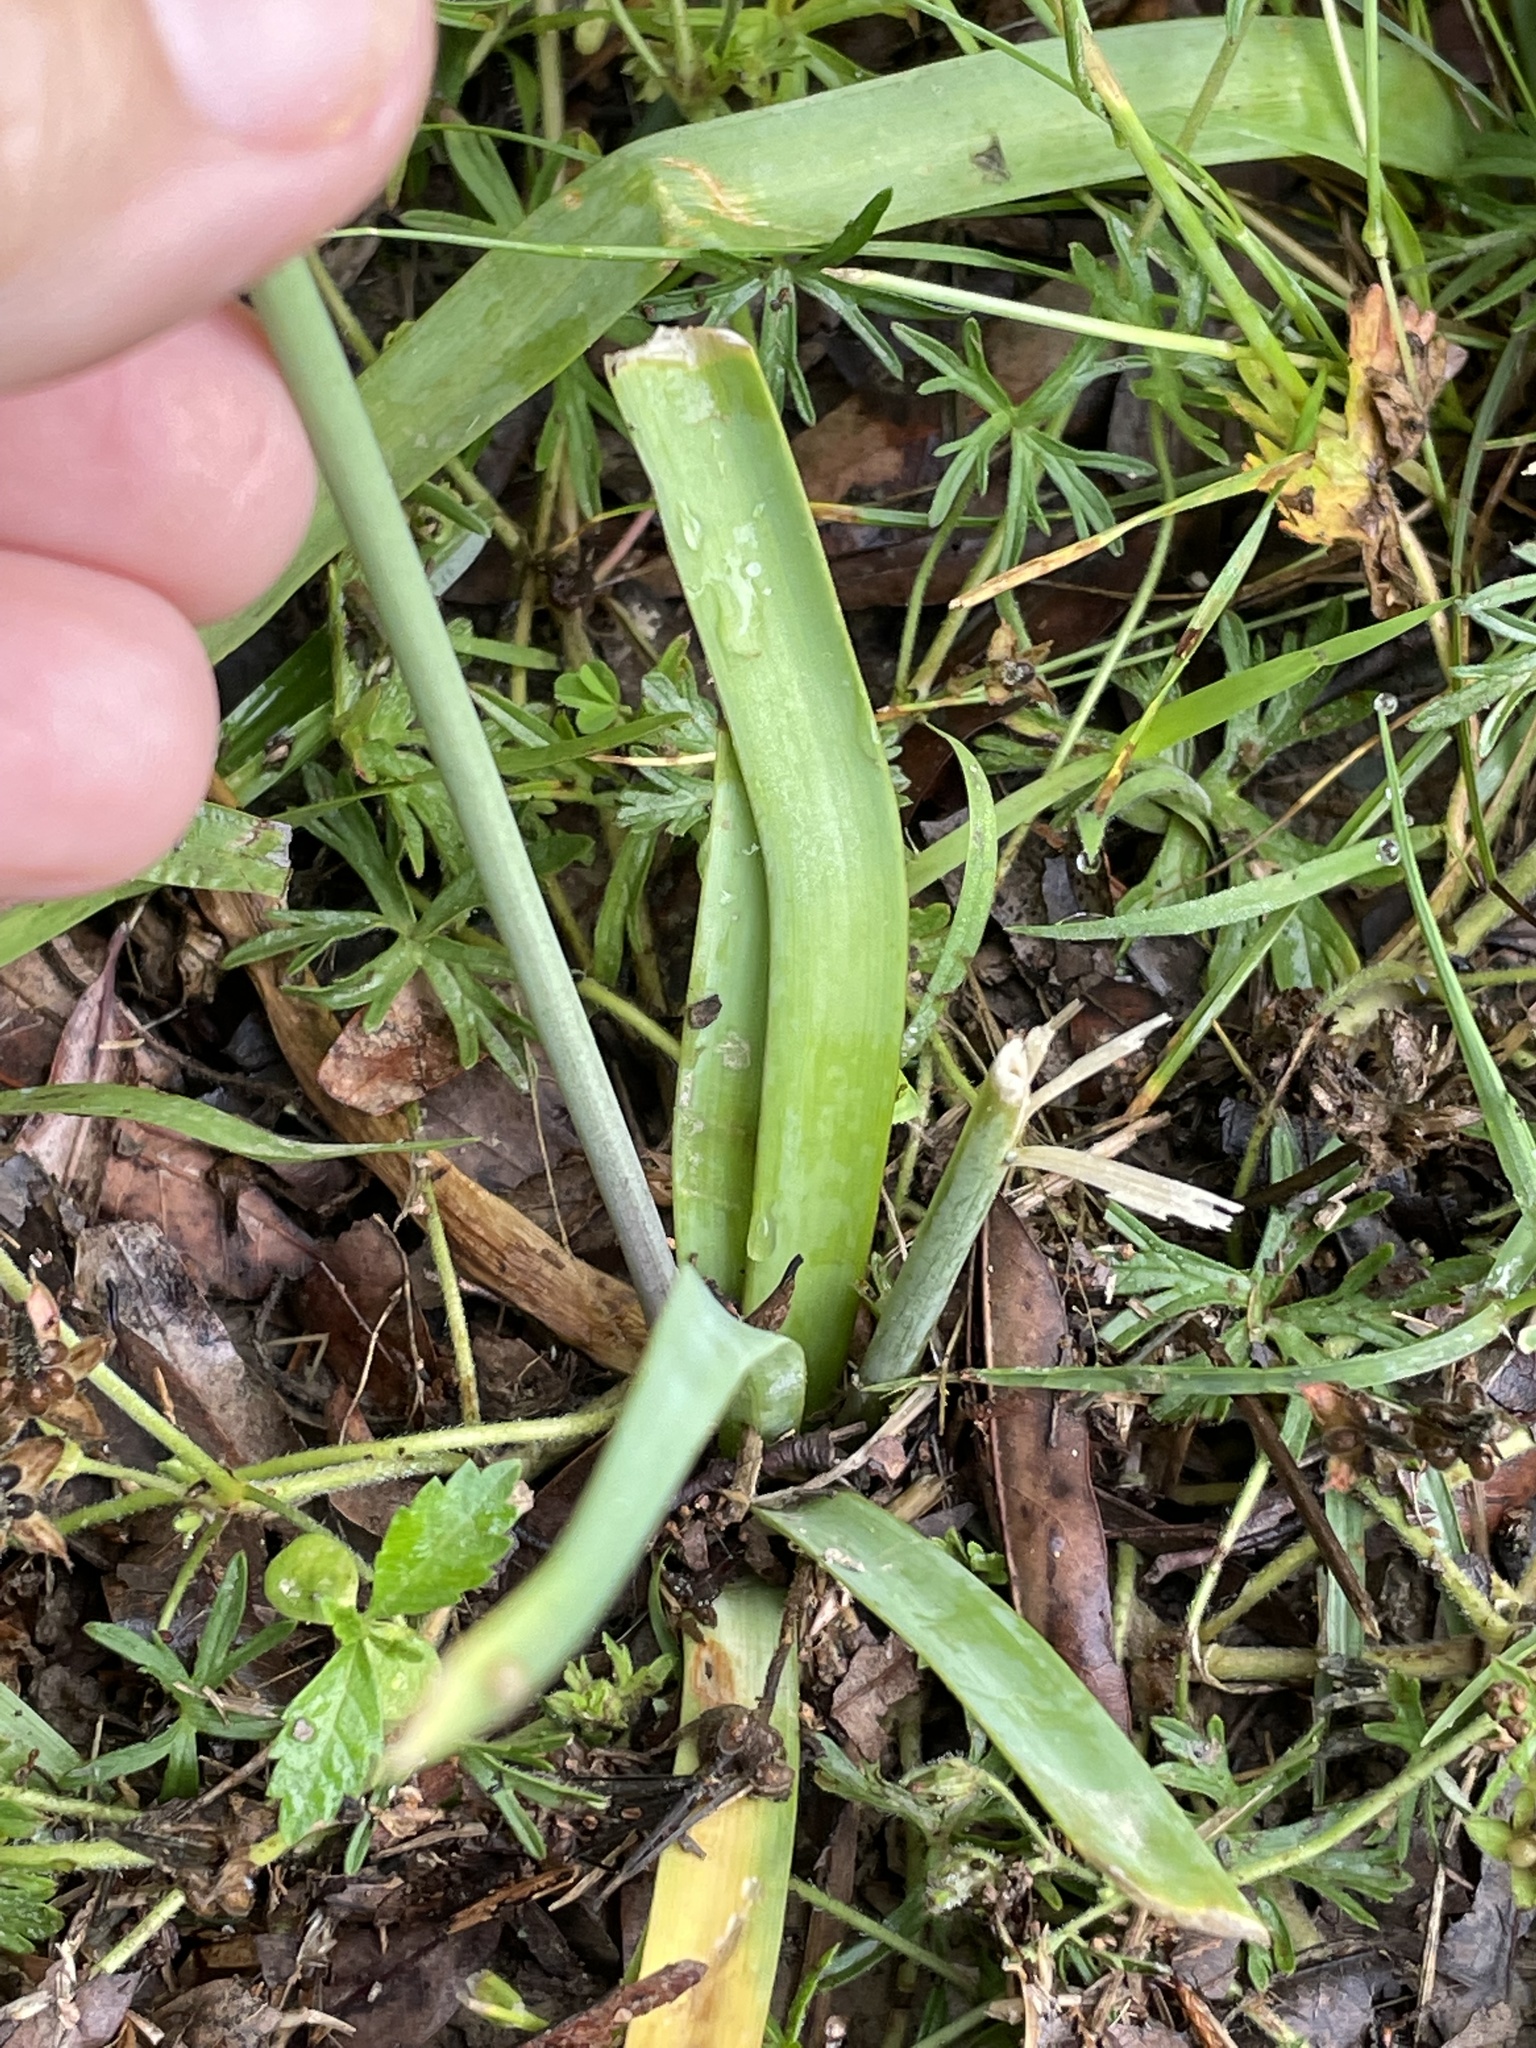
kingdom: Plantae
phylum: Tracheophyta
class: Liliopsida
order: Asparagales
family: Amaryllidaceae
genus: Nothoscordum
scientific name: Nothoscordum gracile
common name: Slender false garlic
